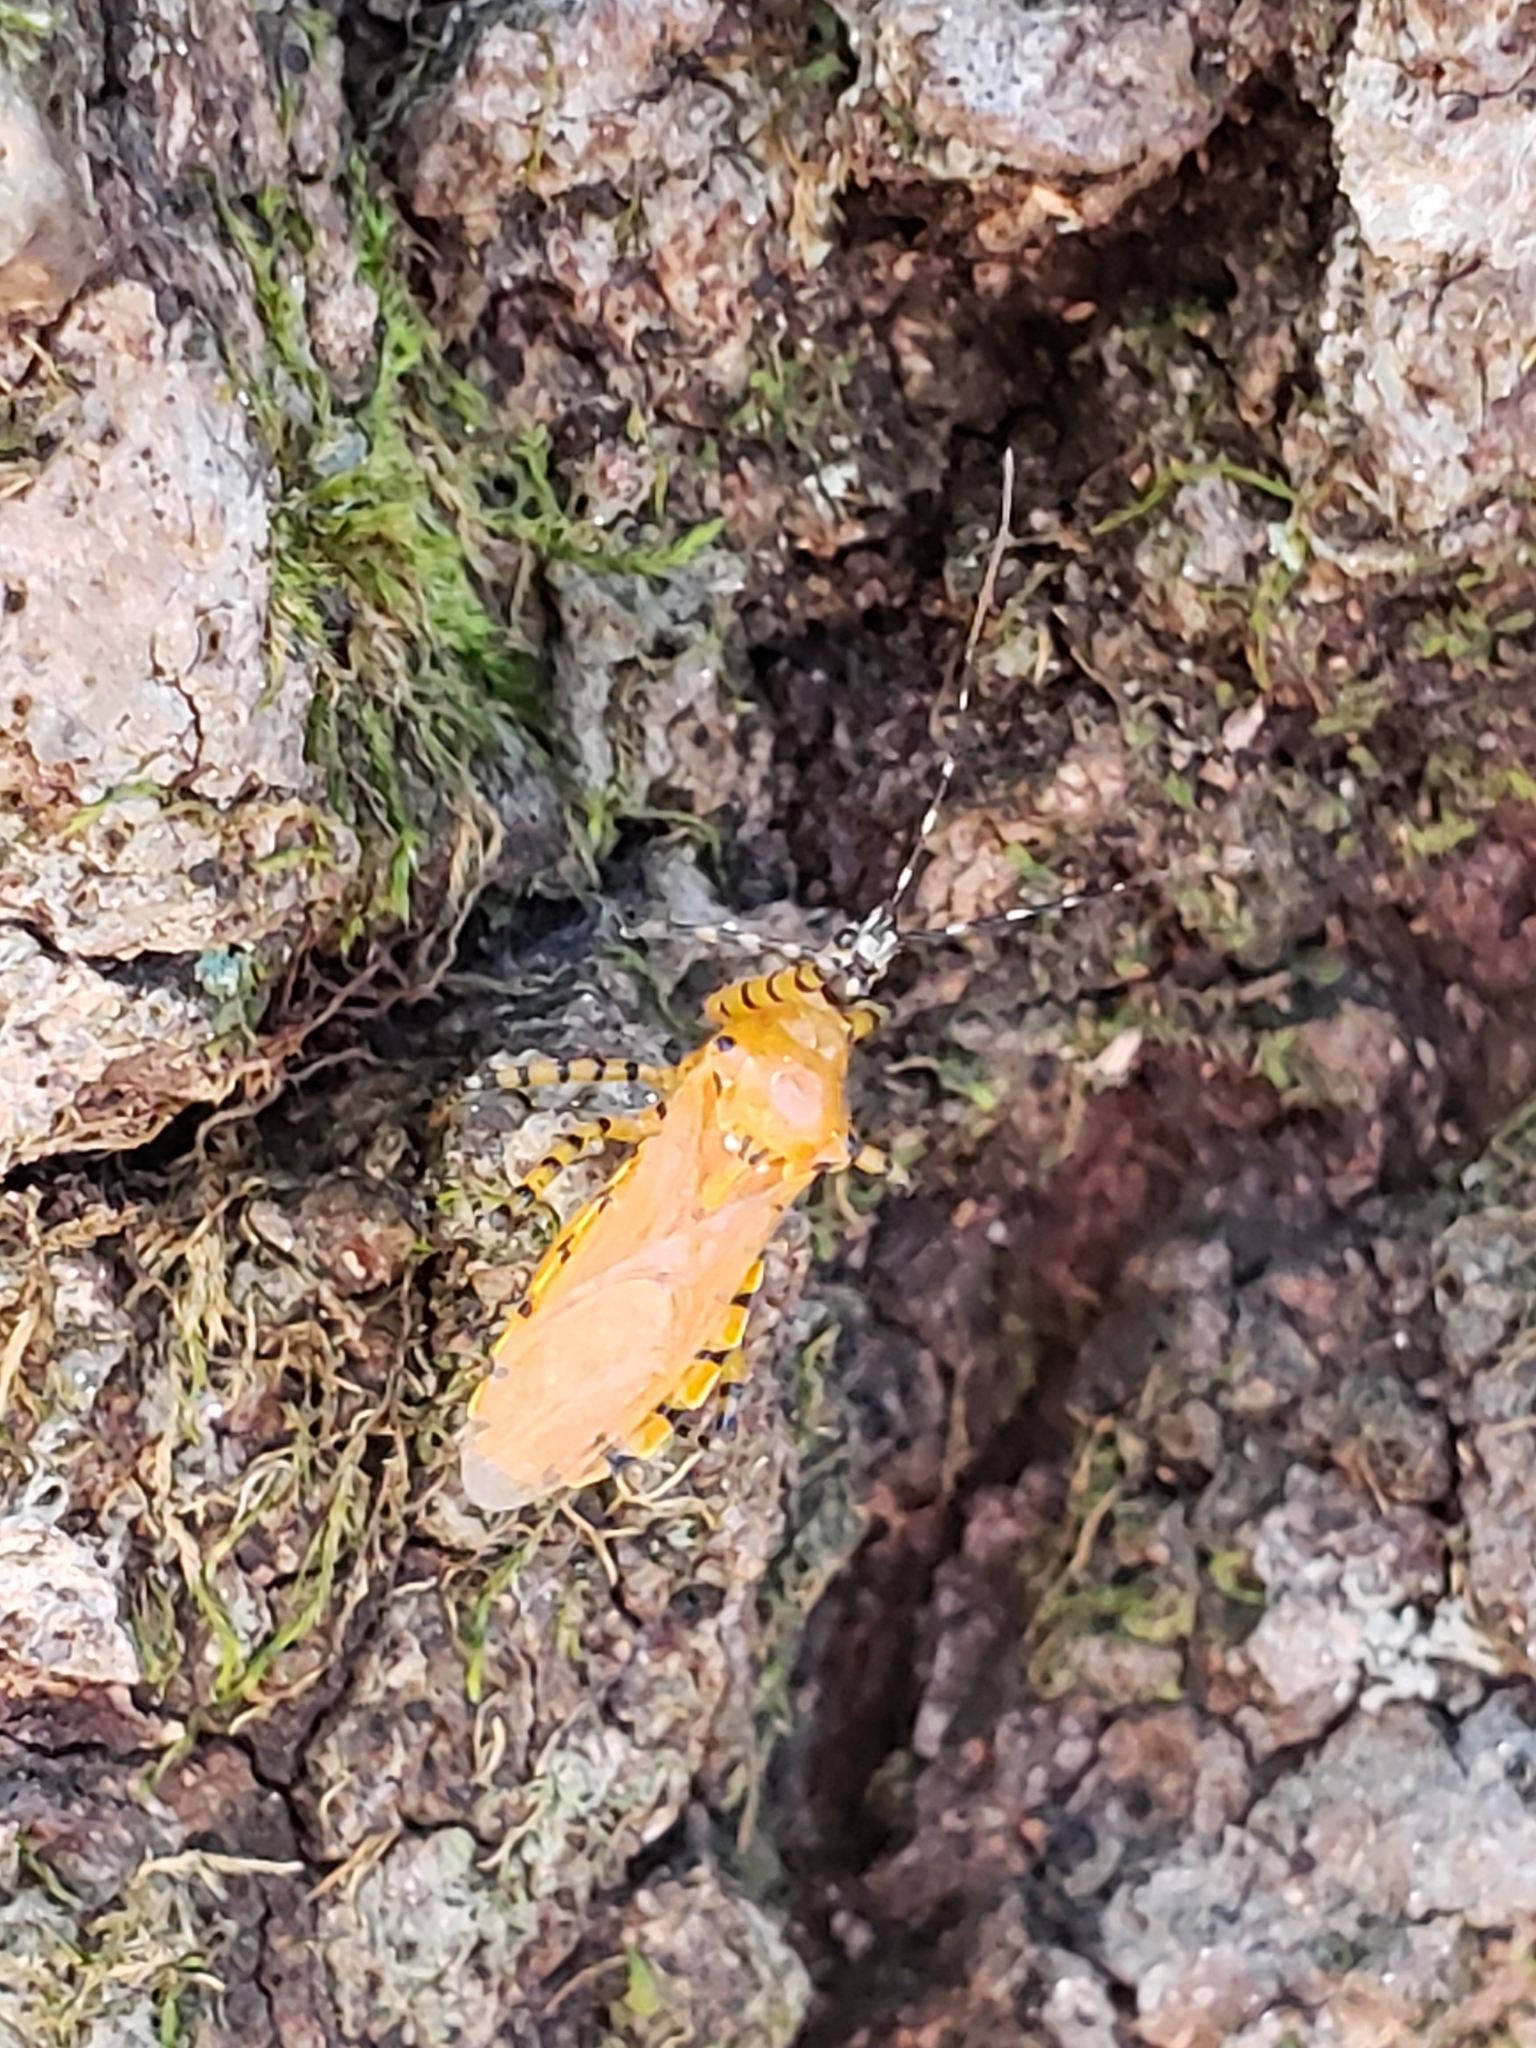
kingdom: Animalia
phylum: Arthropoda
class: Insecta
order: Hemiptera
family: Reduviidae
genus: Pselliopus
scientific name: Pselliopus barberi
